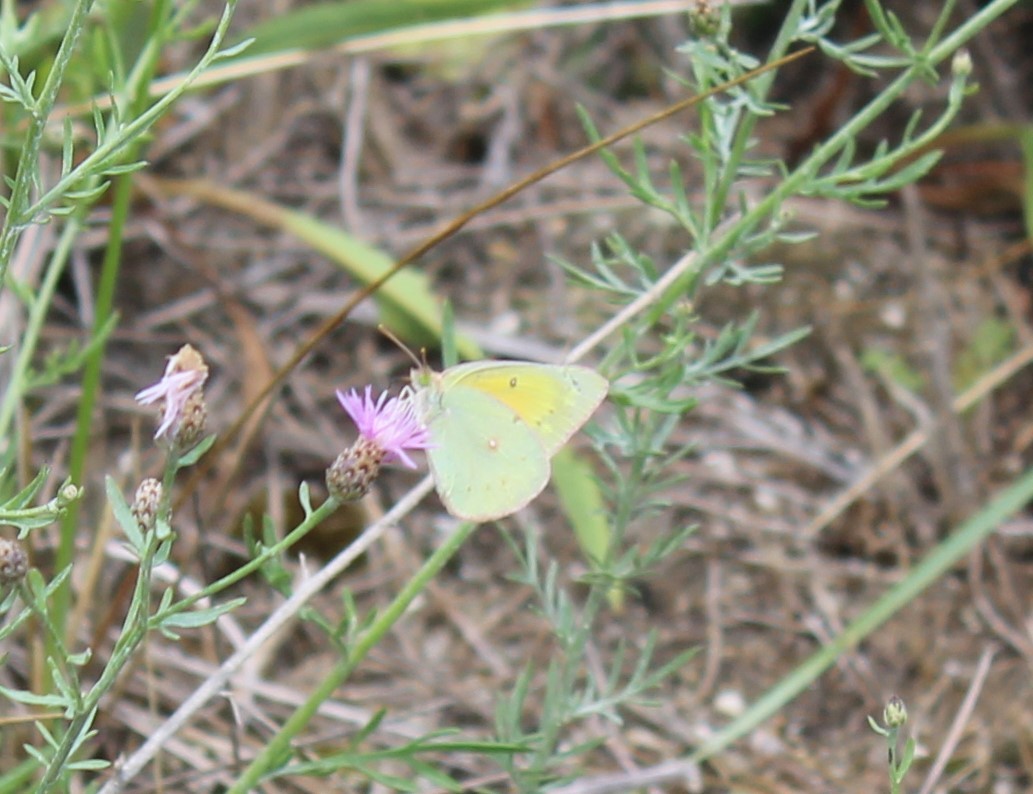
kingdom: Animalia
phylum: Arthropoda
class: Insecta
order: Lepidoptera
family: Pieridae
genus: Colias
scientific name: Colias eurytheme
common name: Alfalfa butterfly
